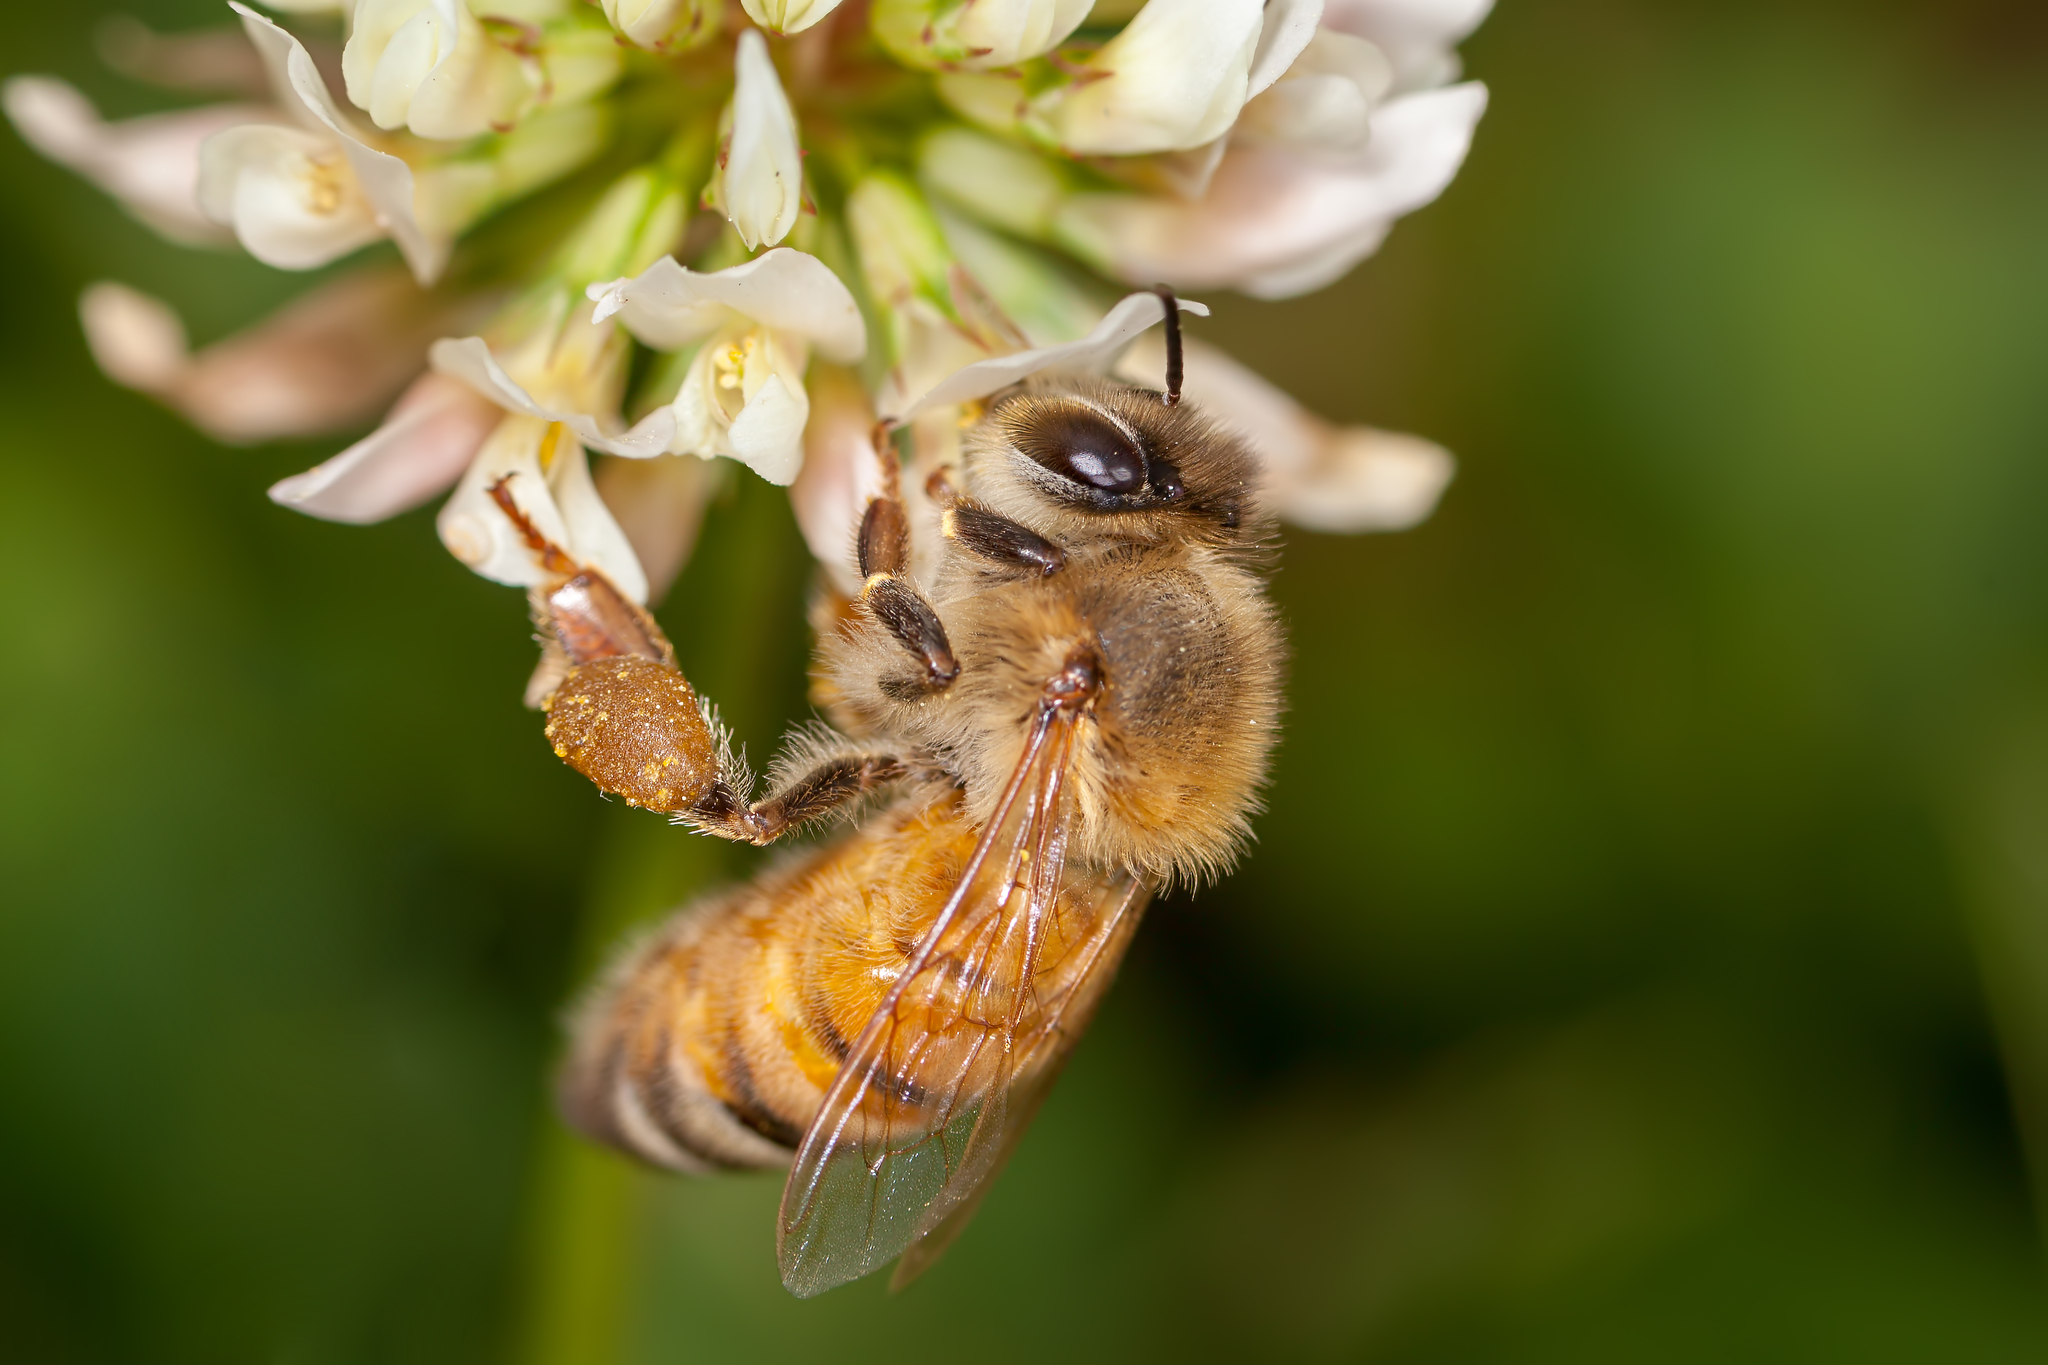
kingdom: Animalia
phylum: Arthropoda
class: Insecta
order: Hymenoptera
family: Apidae
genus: Apis
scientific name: Apis mellifera
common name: Honey bee
